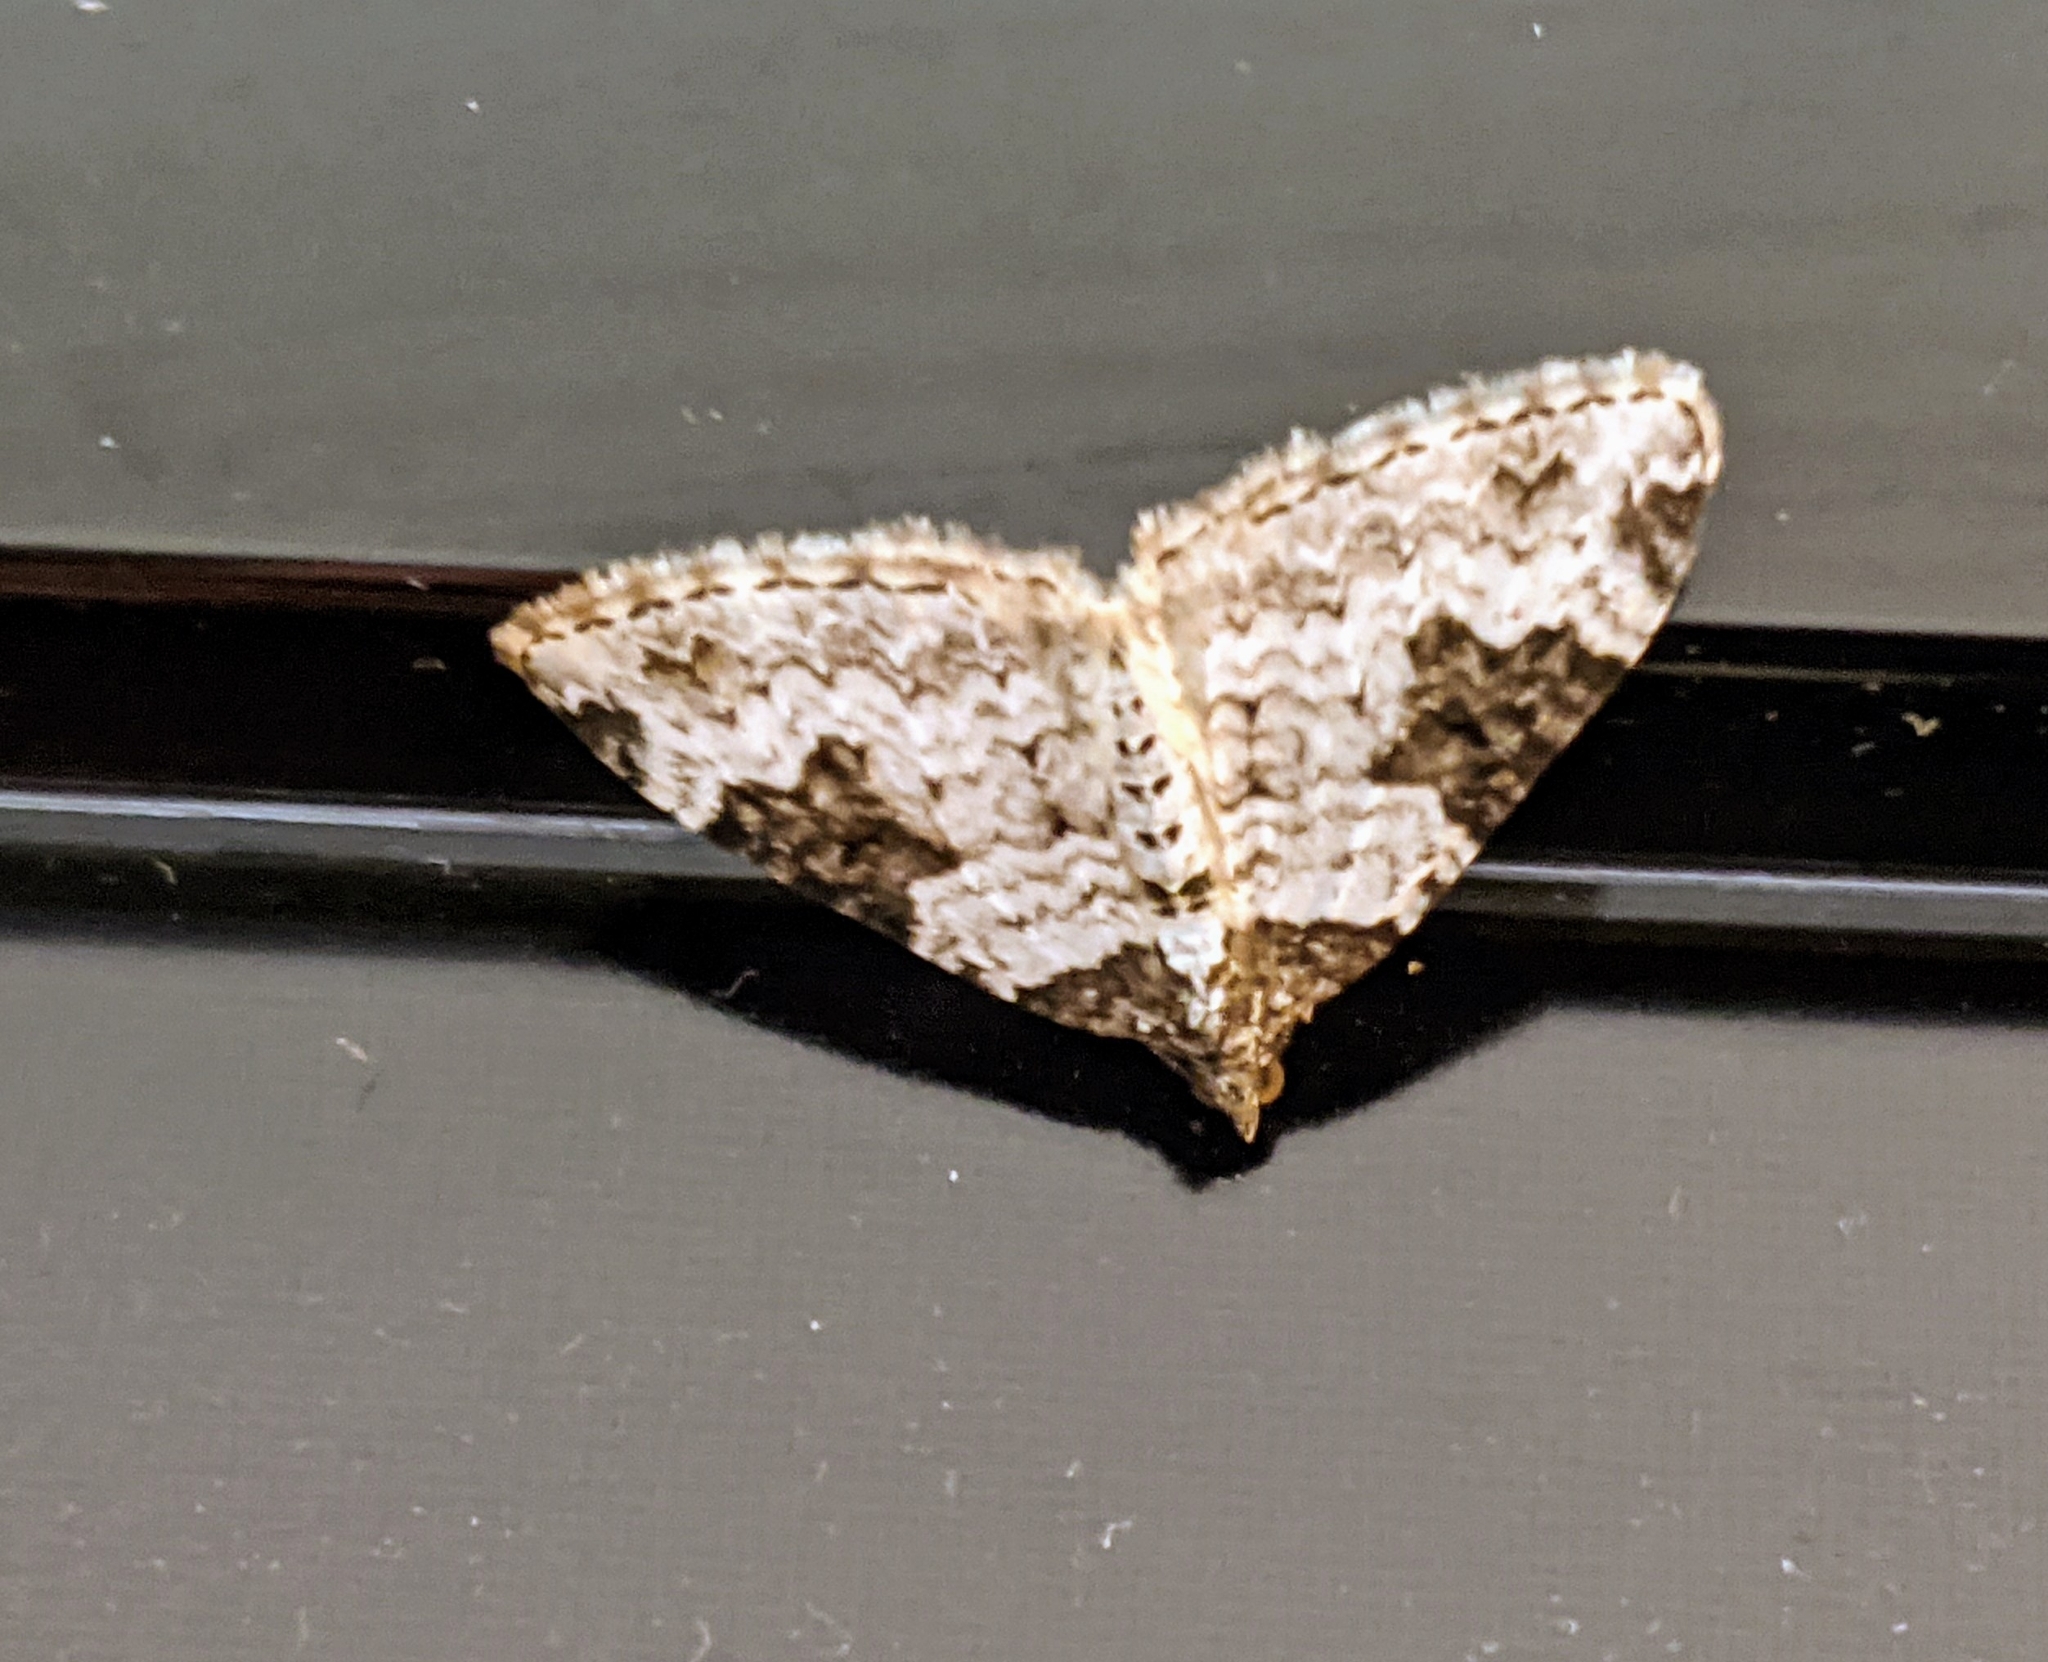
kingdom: Animalia
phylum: Arthropoda
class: Insecta
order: Lepidoptera
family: Geometridae
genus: Xanthorhoe
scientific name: Xanthorhoe fluctuata
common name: Garden carpet
